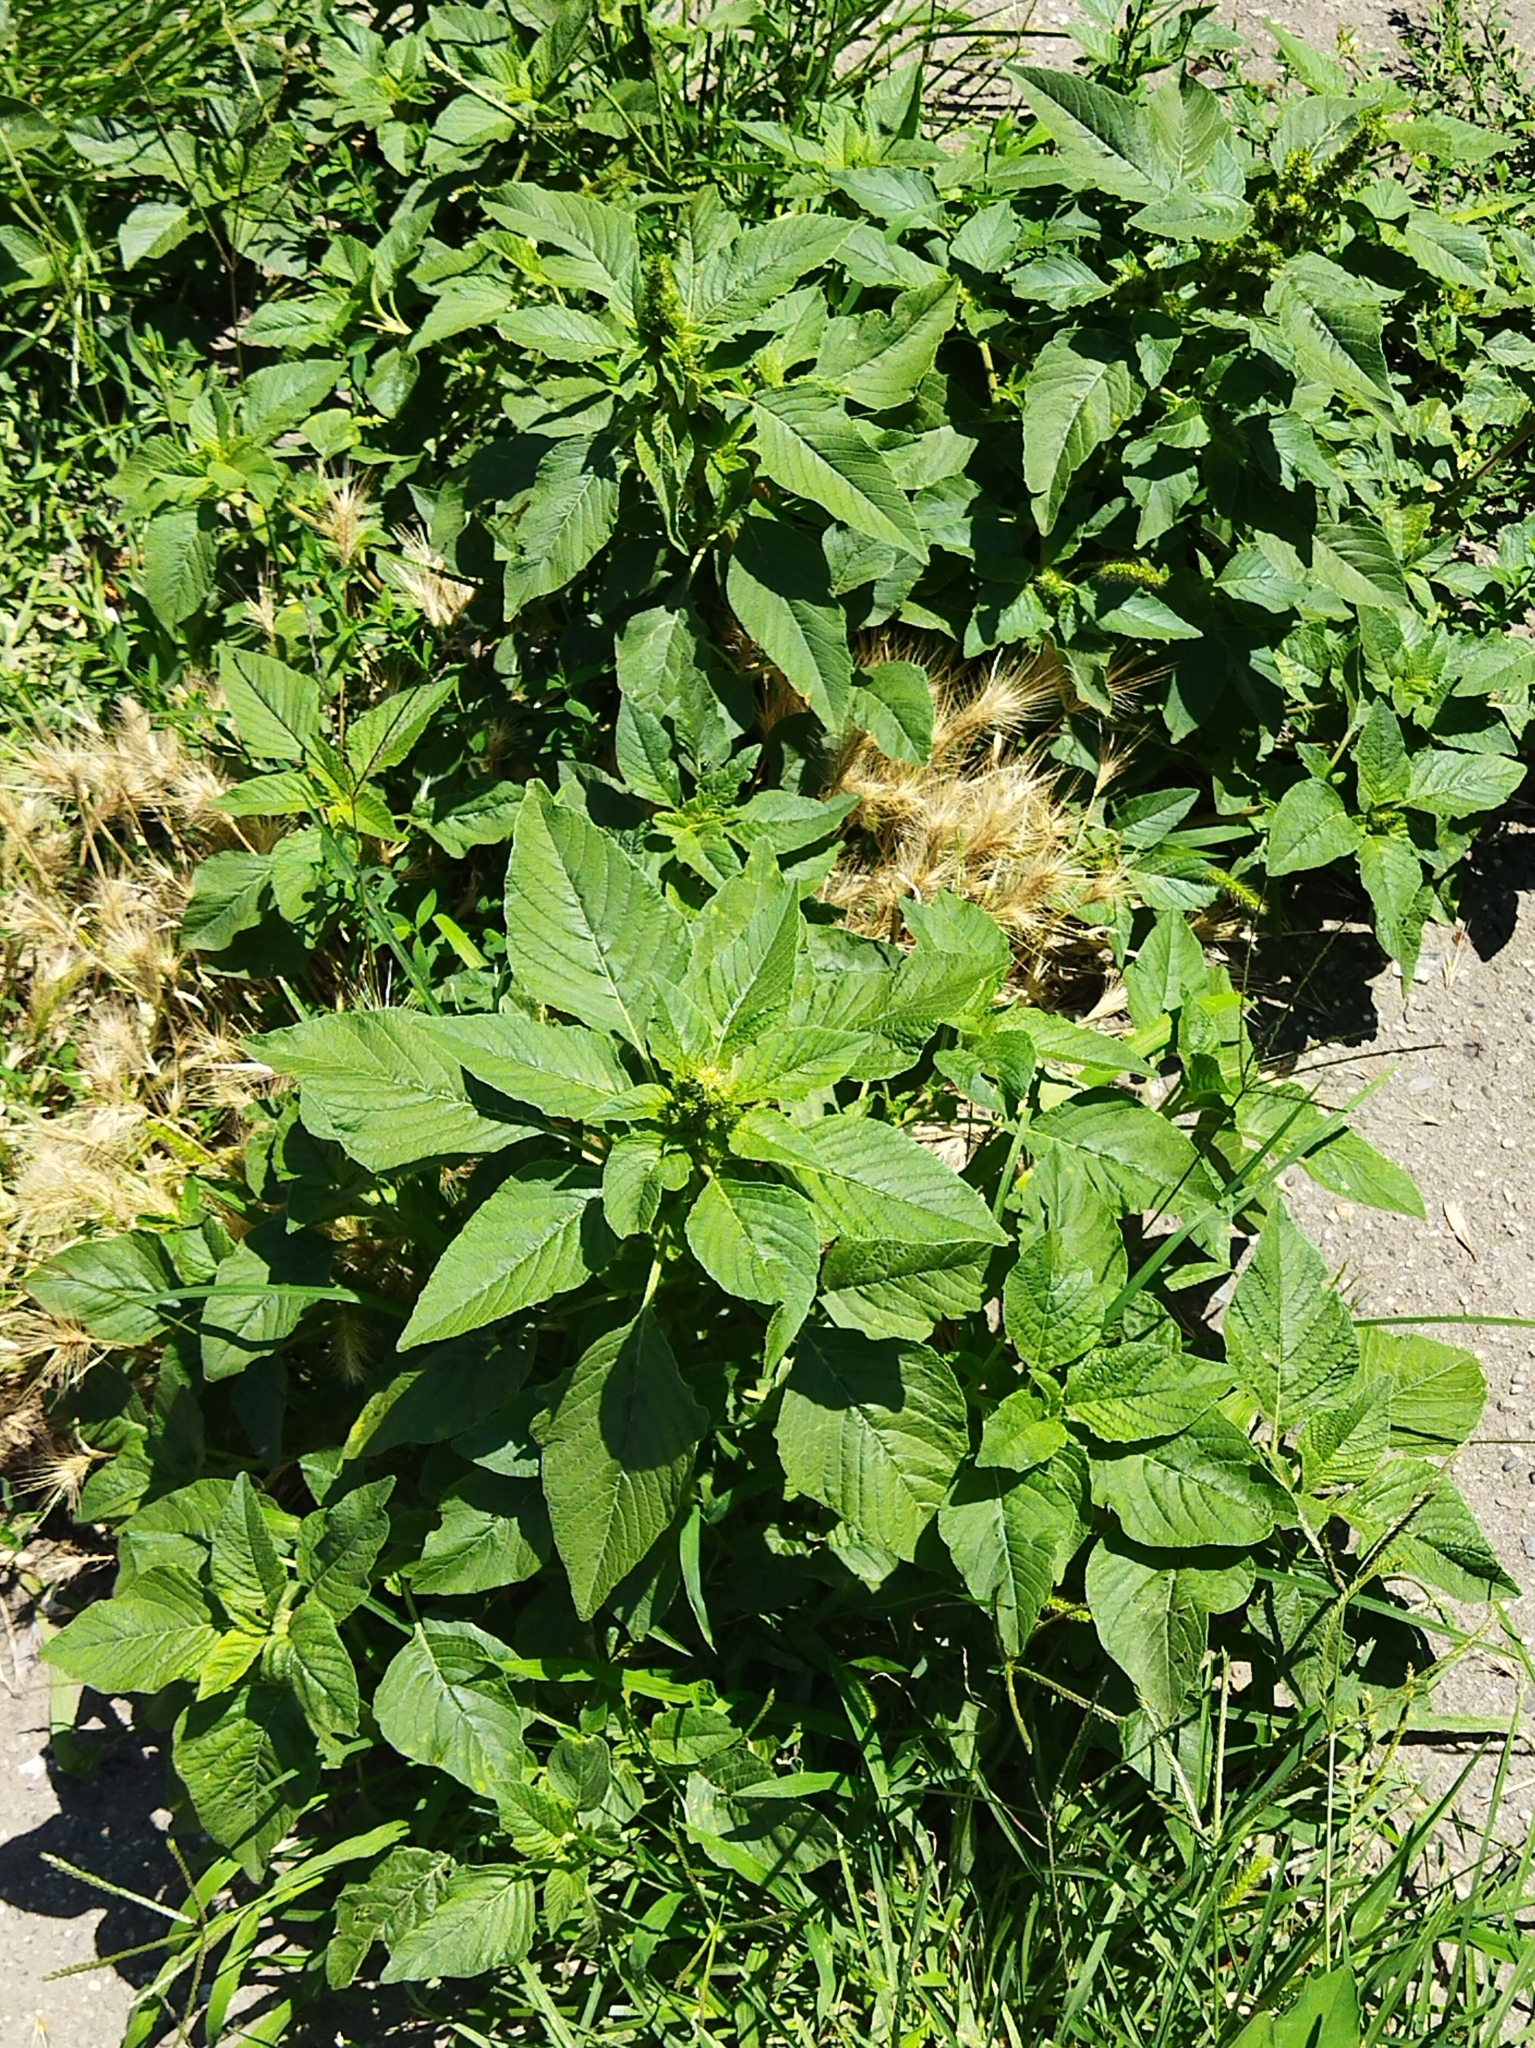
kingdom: Plantae
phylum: Tracheophyta
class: Magnoliopsida
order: Caryophyllales
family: Amaranthaceae
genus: Amaranthus
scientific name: Amaranthus retroflexus
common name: Redroot amaranth
